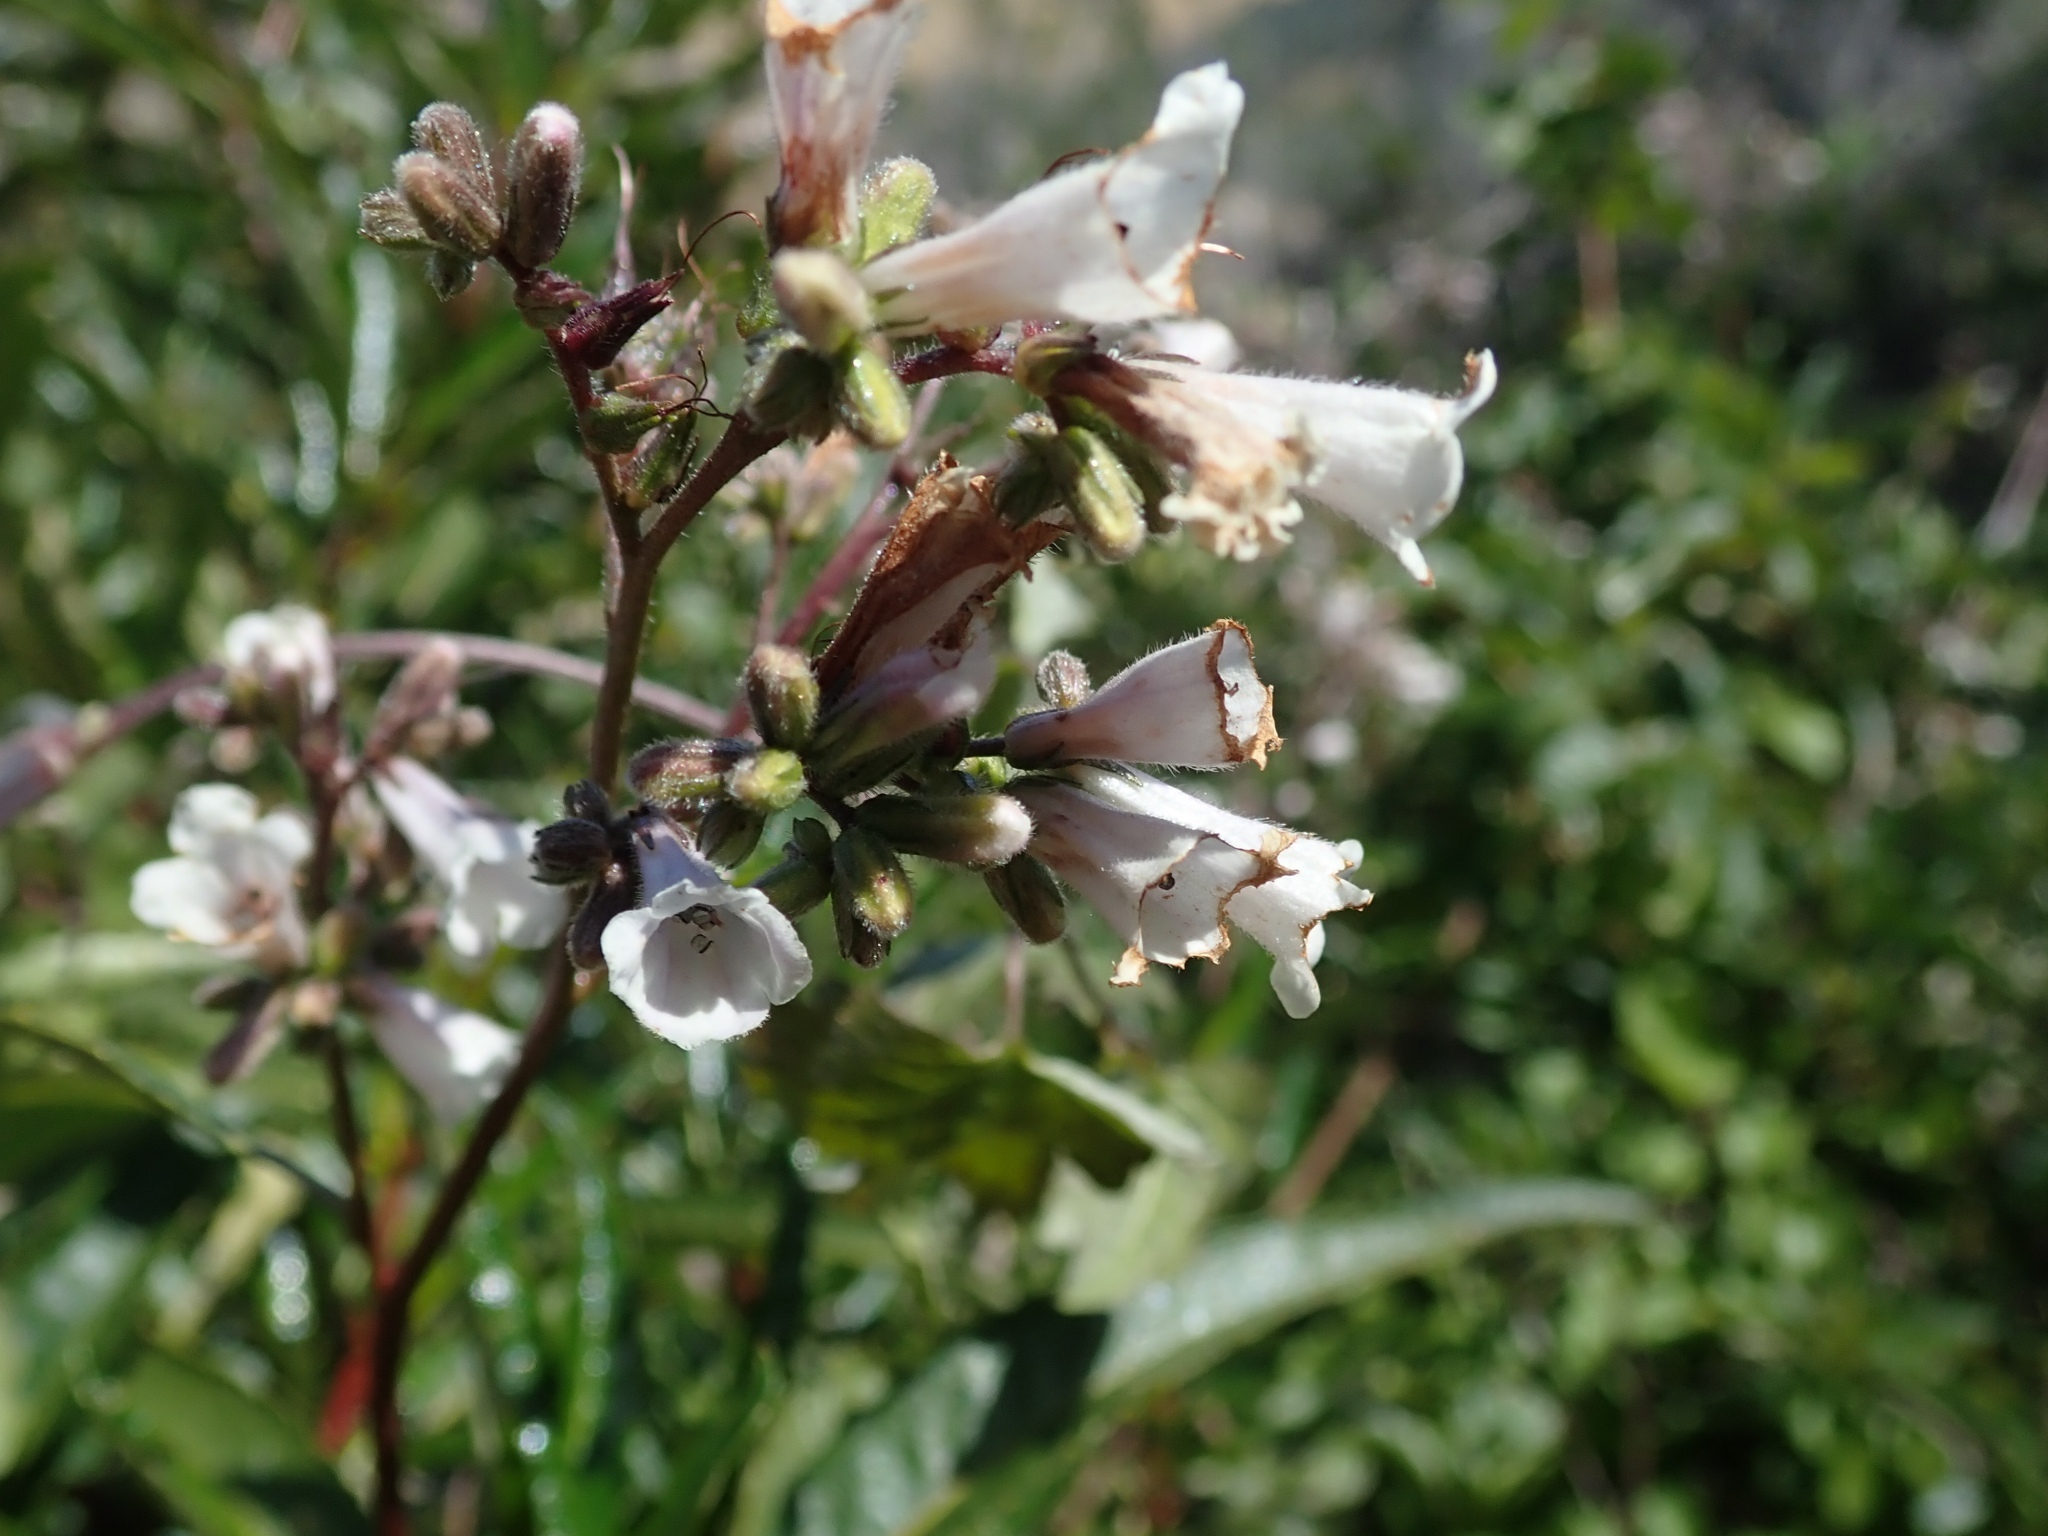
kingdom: Plantae
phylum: Tracheophyta
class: Magnoliopsida
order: Boraginales
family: Namaceae
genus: Eriodictyon
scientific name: Eriodictyon californicum
